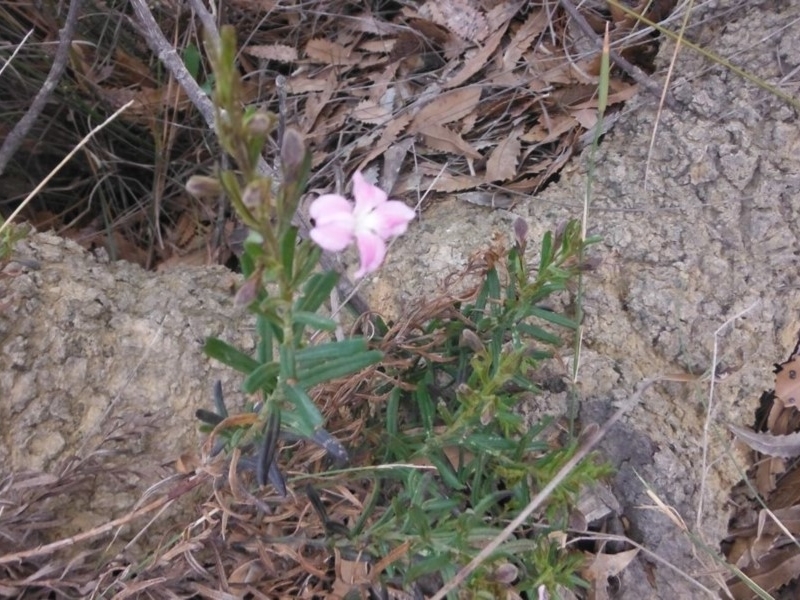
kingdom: Plantae
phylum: Tracheophyta
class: Magnoliopsida
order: Asterales
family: Goodeniaceae
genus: Goodenia
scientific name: Goodenia barbata
